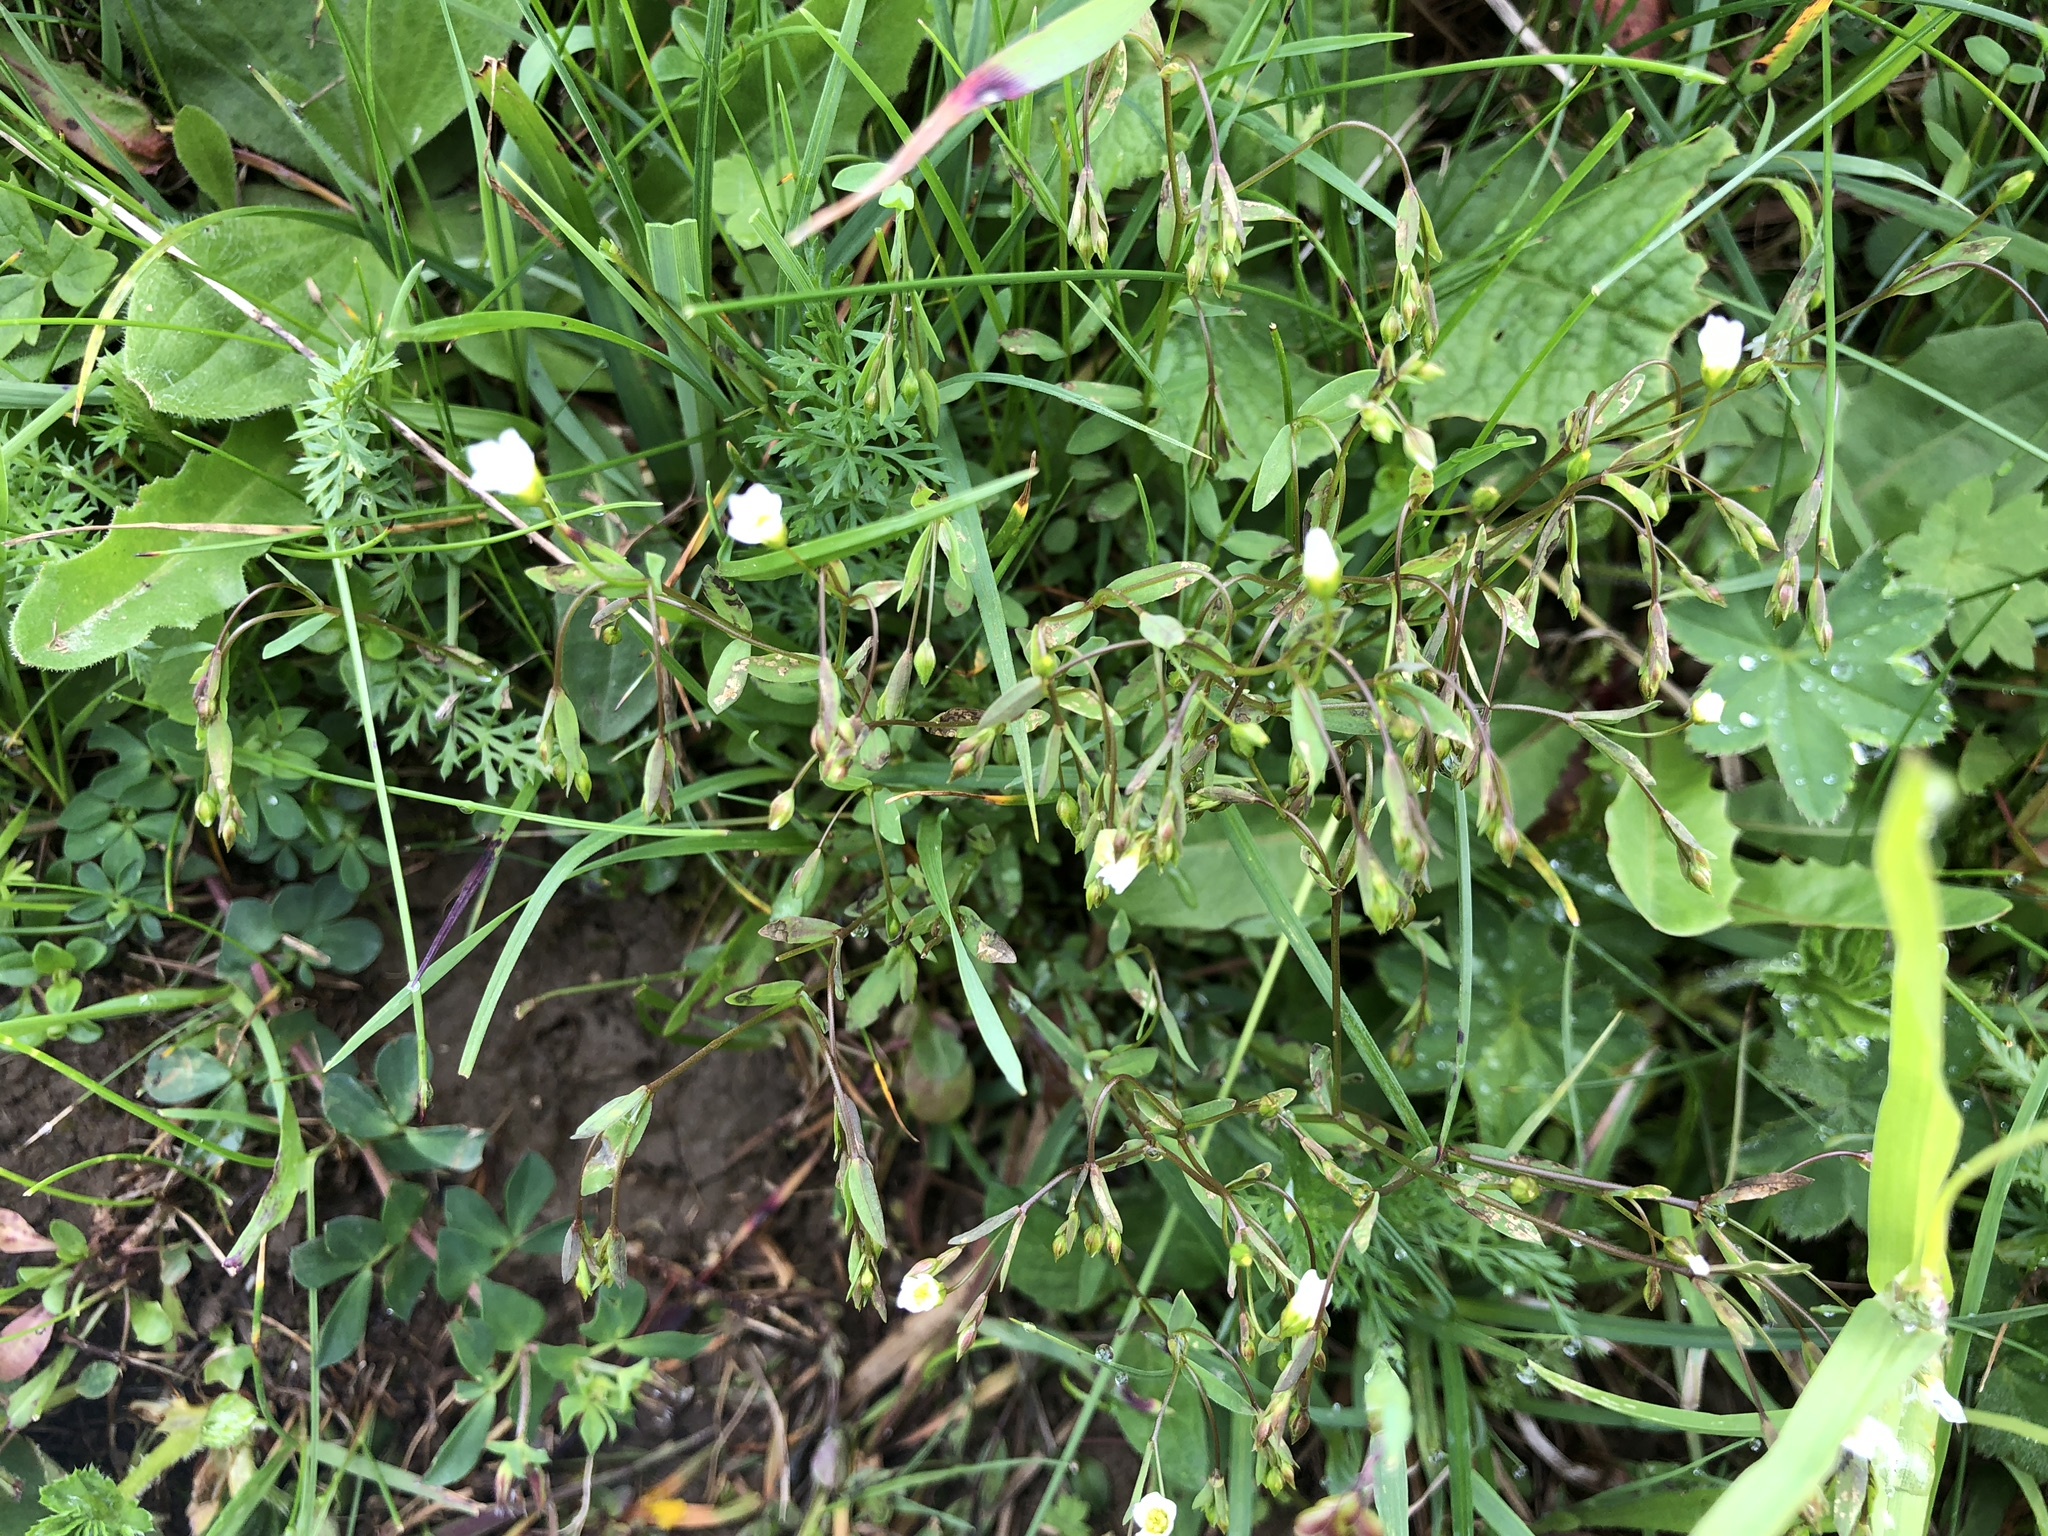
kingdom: Plantae
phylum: Tracheophyta
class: Magnoliopsida
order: Malpighiales
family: Linaceae
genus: Linum
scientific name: Linum catharticum
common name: Fairy flax
